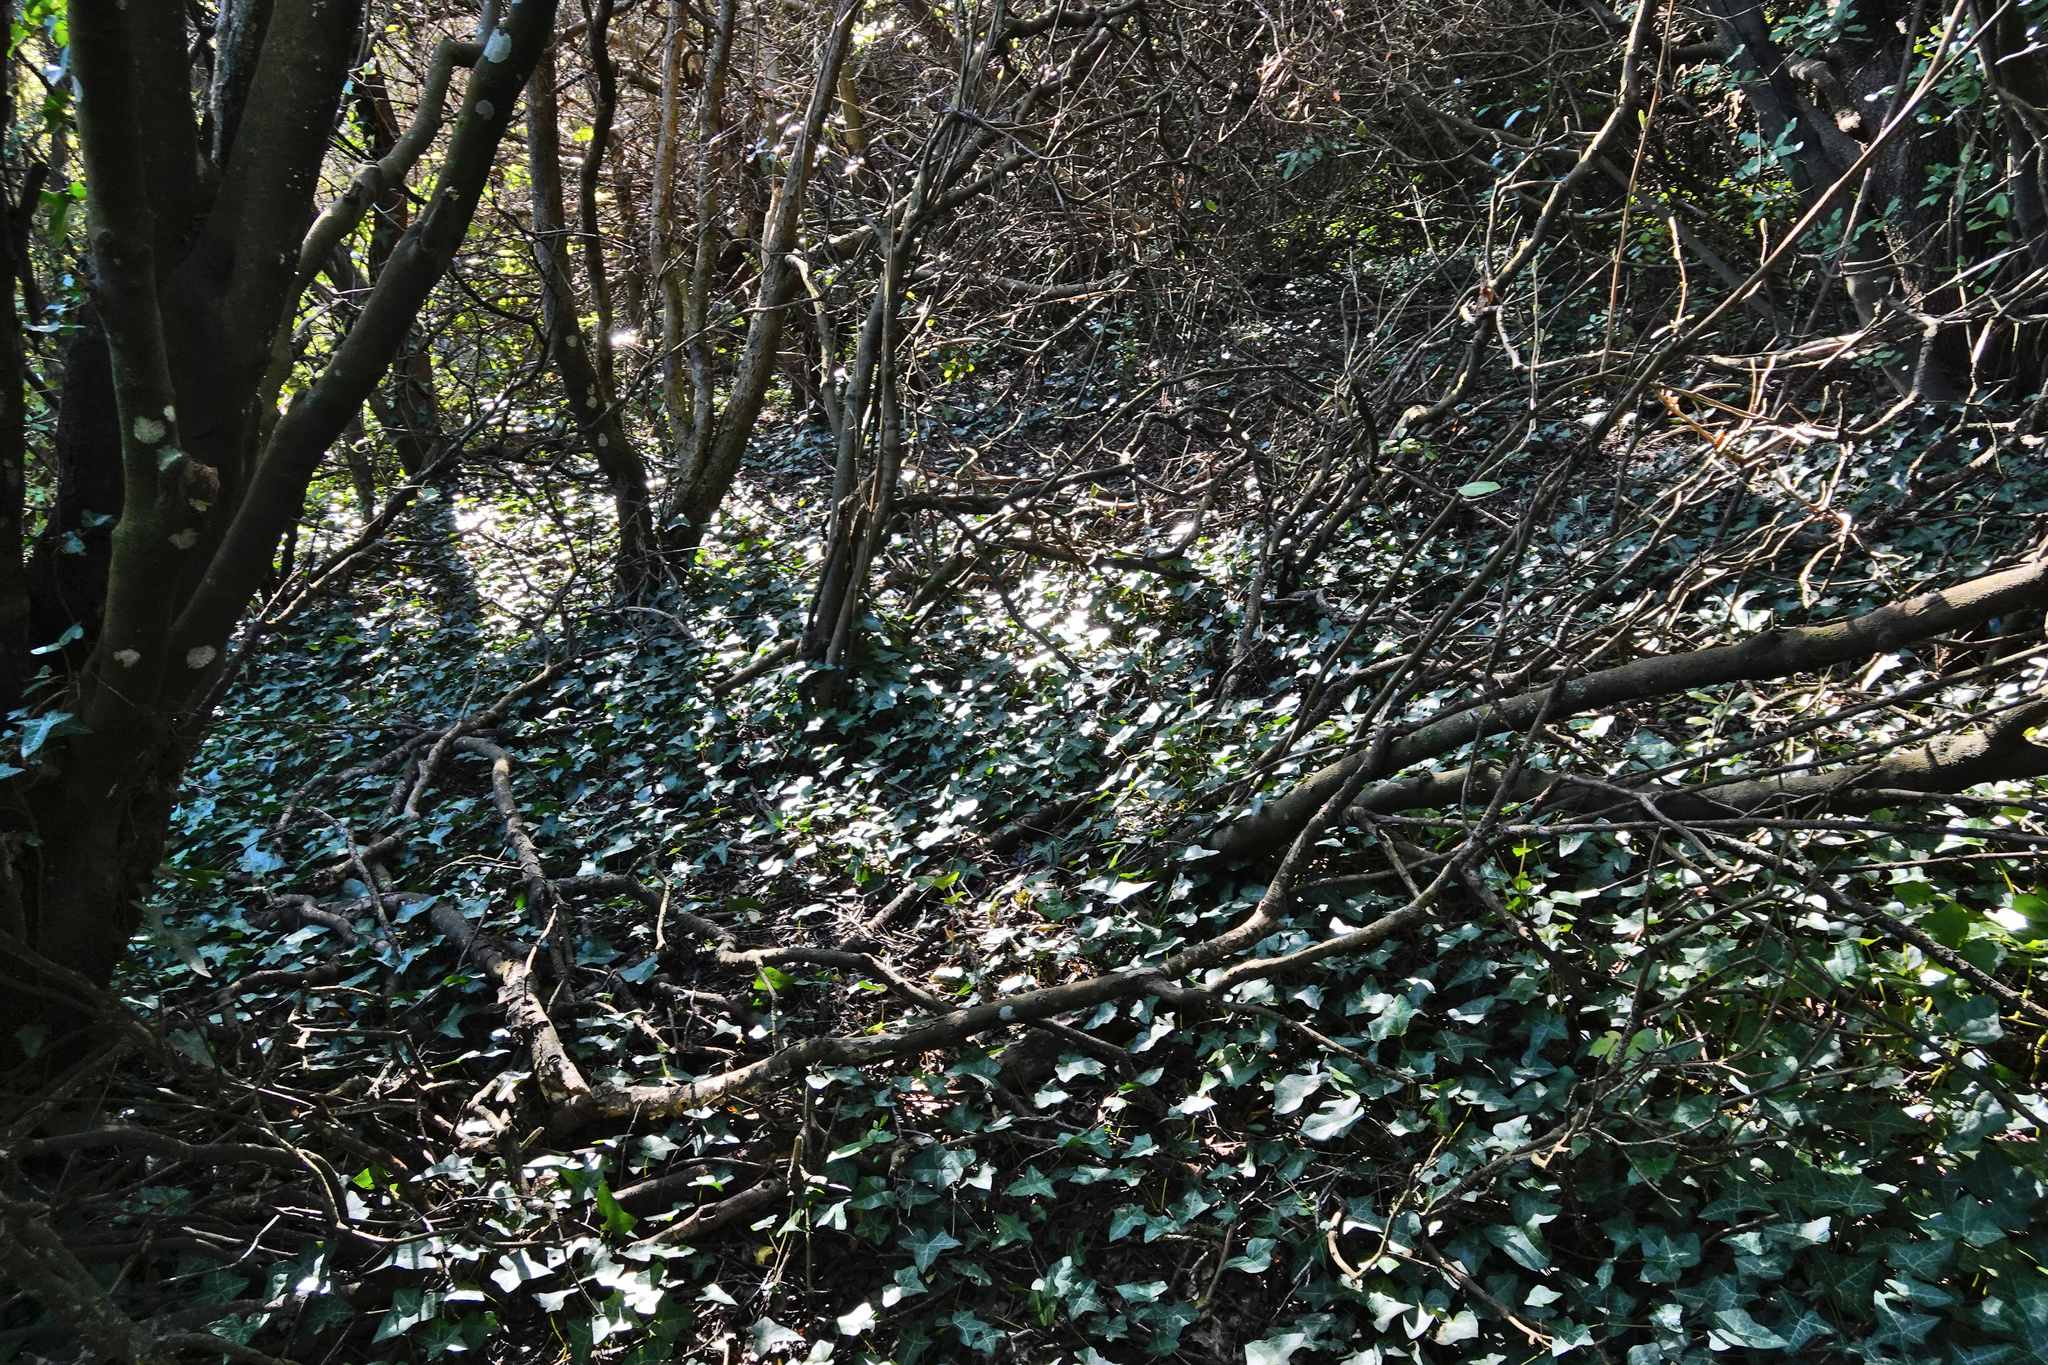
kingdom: Plantae
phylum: Tracheophyta
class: Magnoliopsida
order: Apiales
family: Araliaceae
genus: Hedera
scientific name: Hedera helix
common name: Ivy
